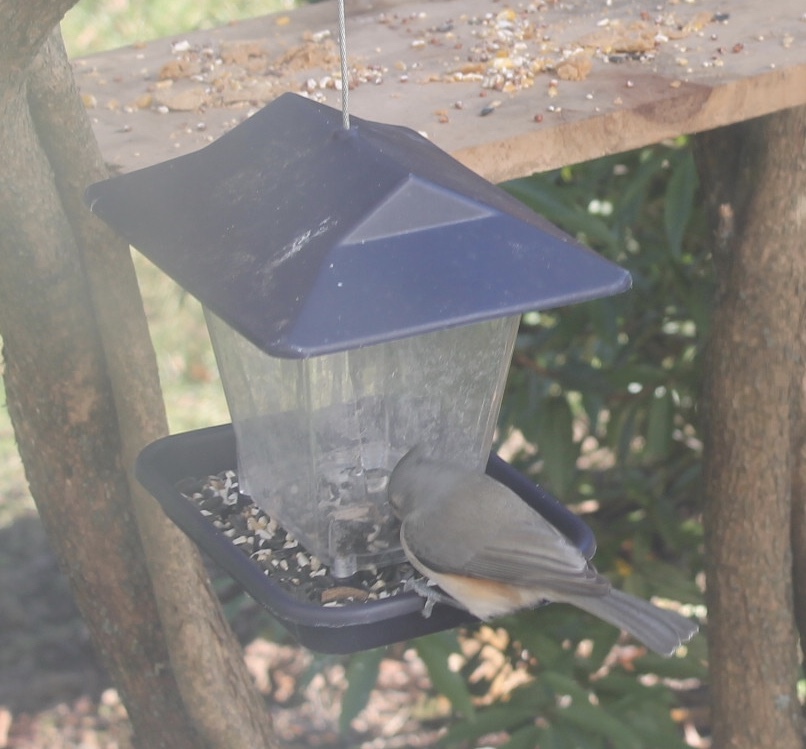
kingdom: Animalia
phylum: Chordata
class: Aves
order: Passeriformes
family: Paridae
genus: Baeolophus
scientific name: Baeolophus bicolor
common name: Tufted titmouse
